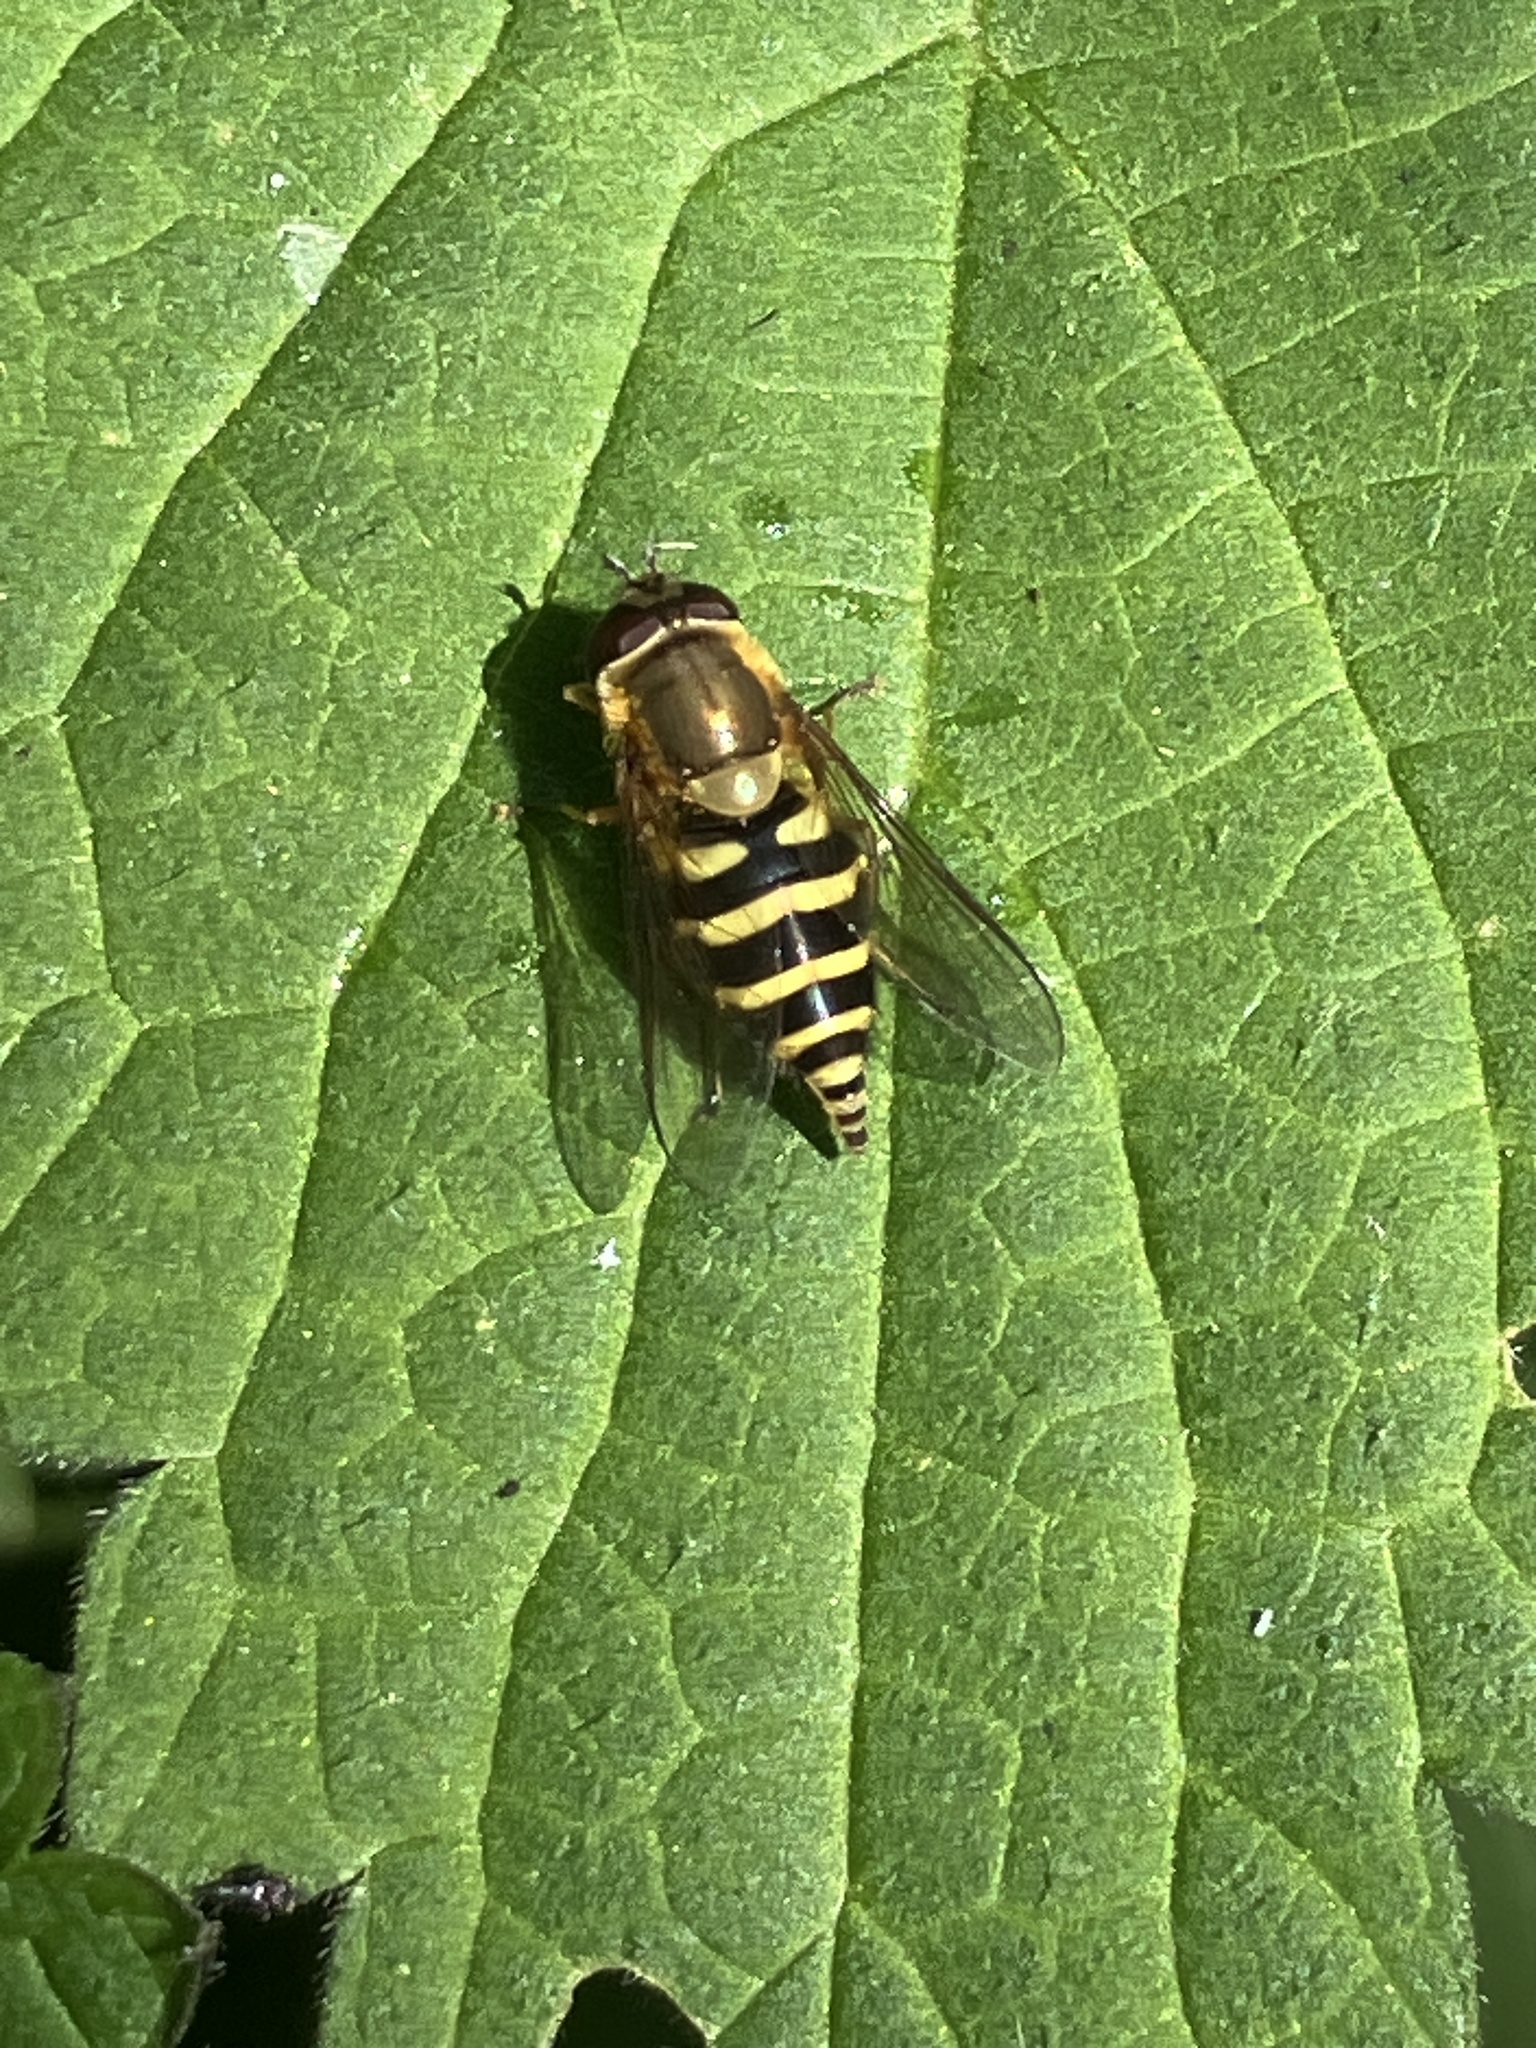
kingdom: Animalia
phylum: Arthropoda
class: Insecta
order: Diptera
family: Syrphidae
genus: Syrphus
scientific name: Syrphus
